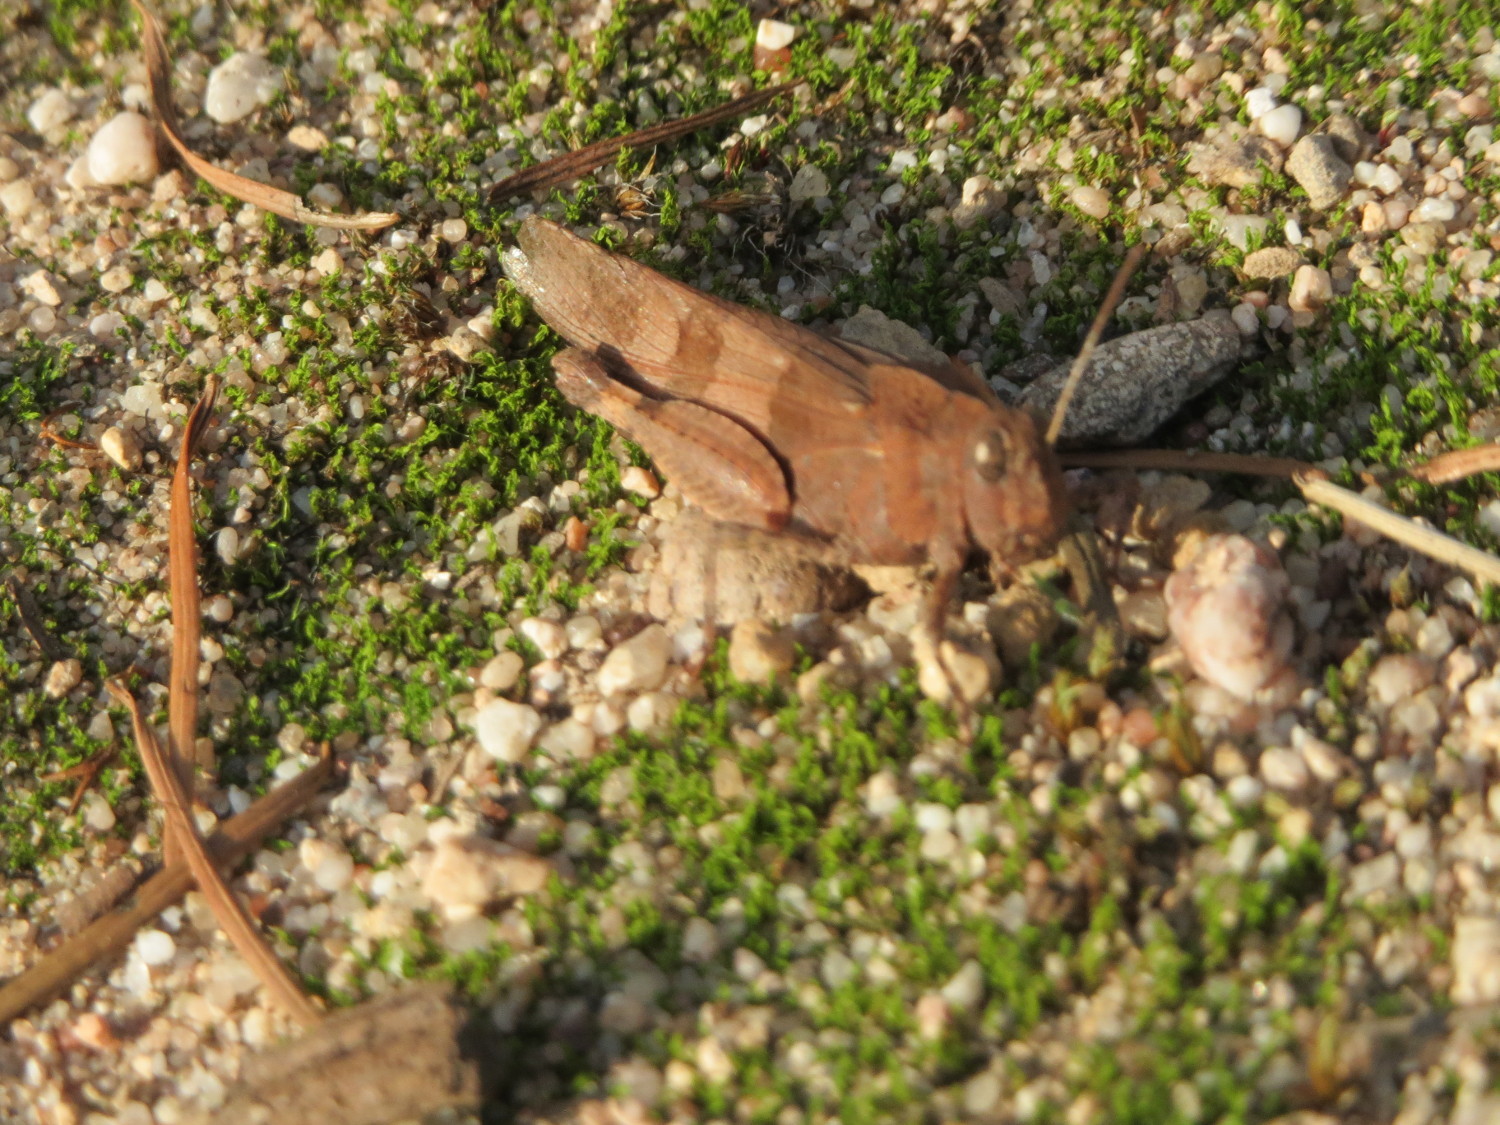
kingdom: Animalia
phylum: Arthropoda
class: Insecta
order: Orthoptera
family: Acrididae
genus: Oedipoda
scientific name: Oedipoda caerulescens
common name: Blue-winged grasshopper
